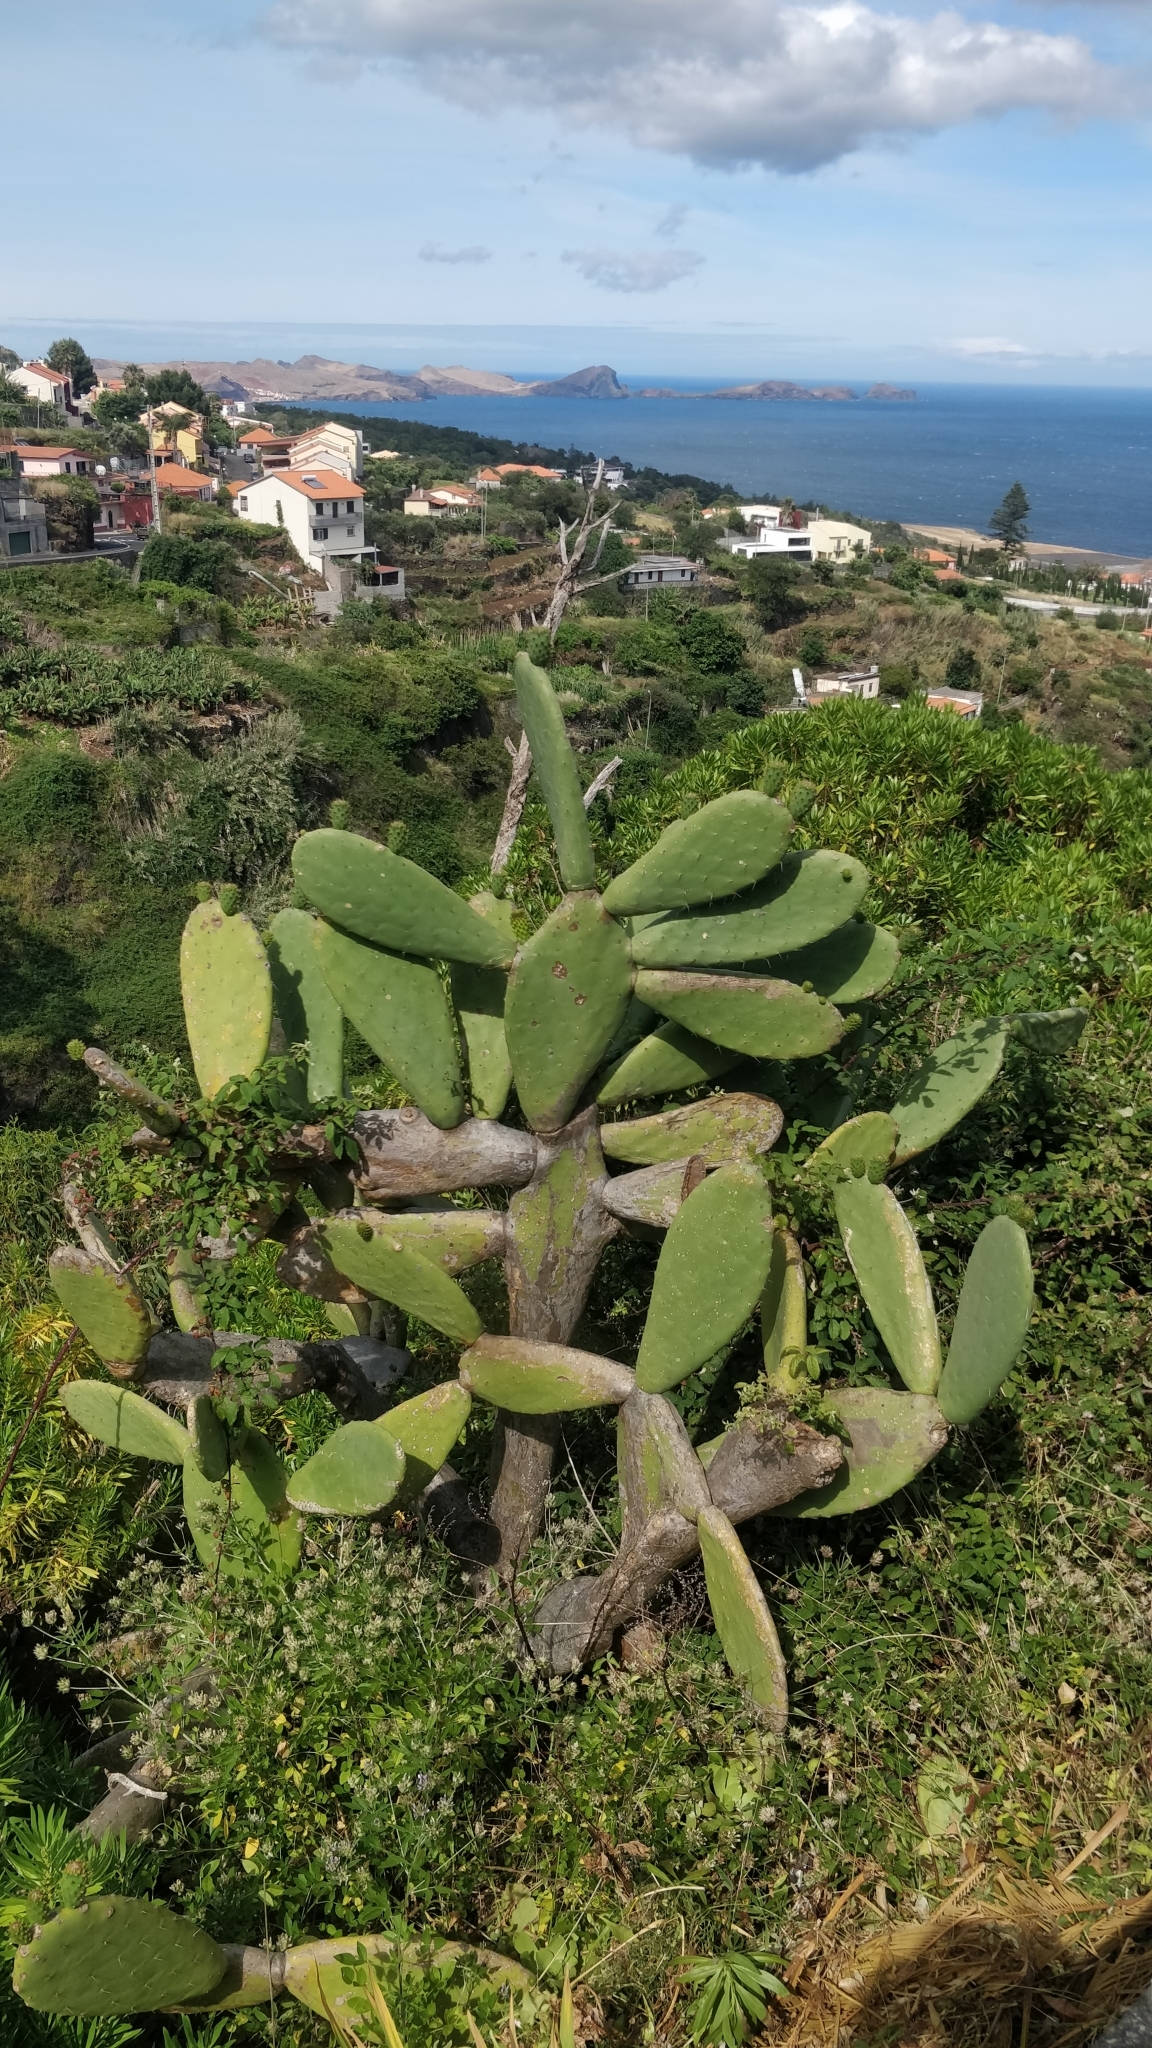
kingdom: Plantae
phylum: Tracheophyta
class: Magnoliopsida
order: Caryophyllales
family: Cactaceae
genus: Opuntia
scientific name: Opuntia ficus-indica
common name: Barbary fig
